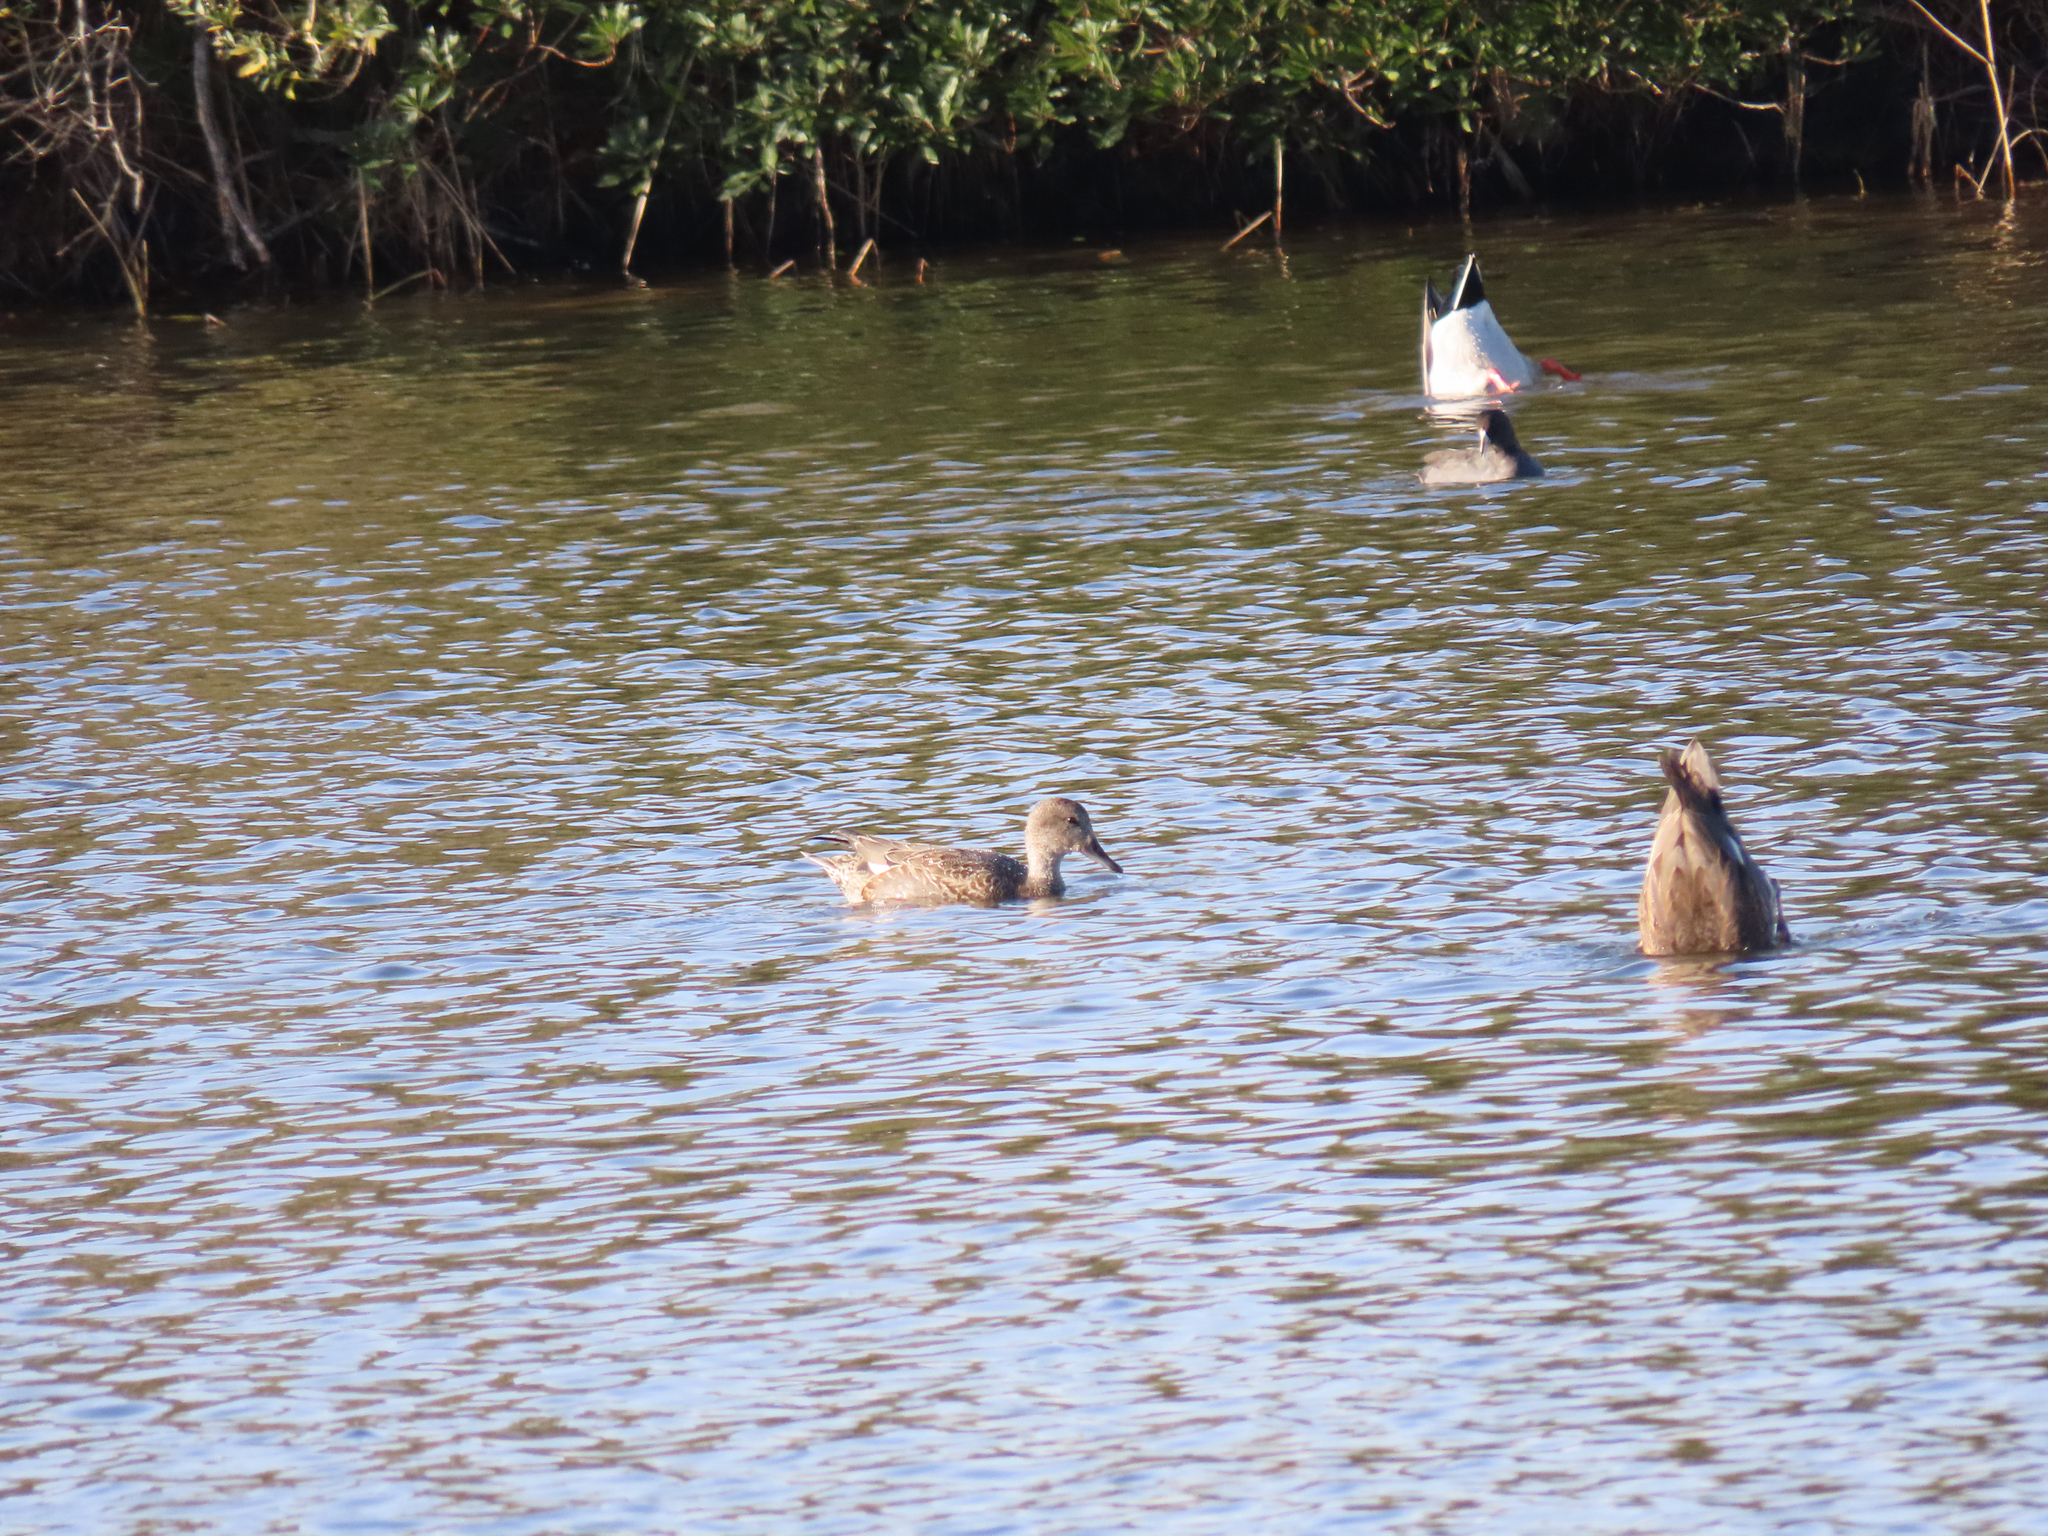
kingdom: Animalia
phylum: Chordata
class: Aves
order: Anseriformes
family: Anatidae
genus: Mareca
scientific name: Mareca strepera
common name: Gadwall
